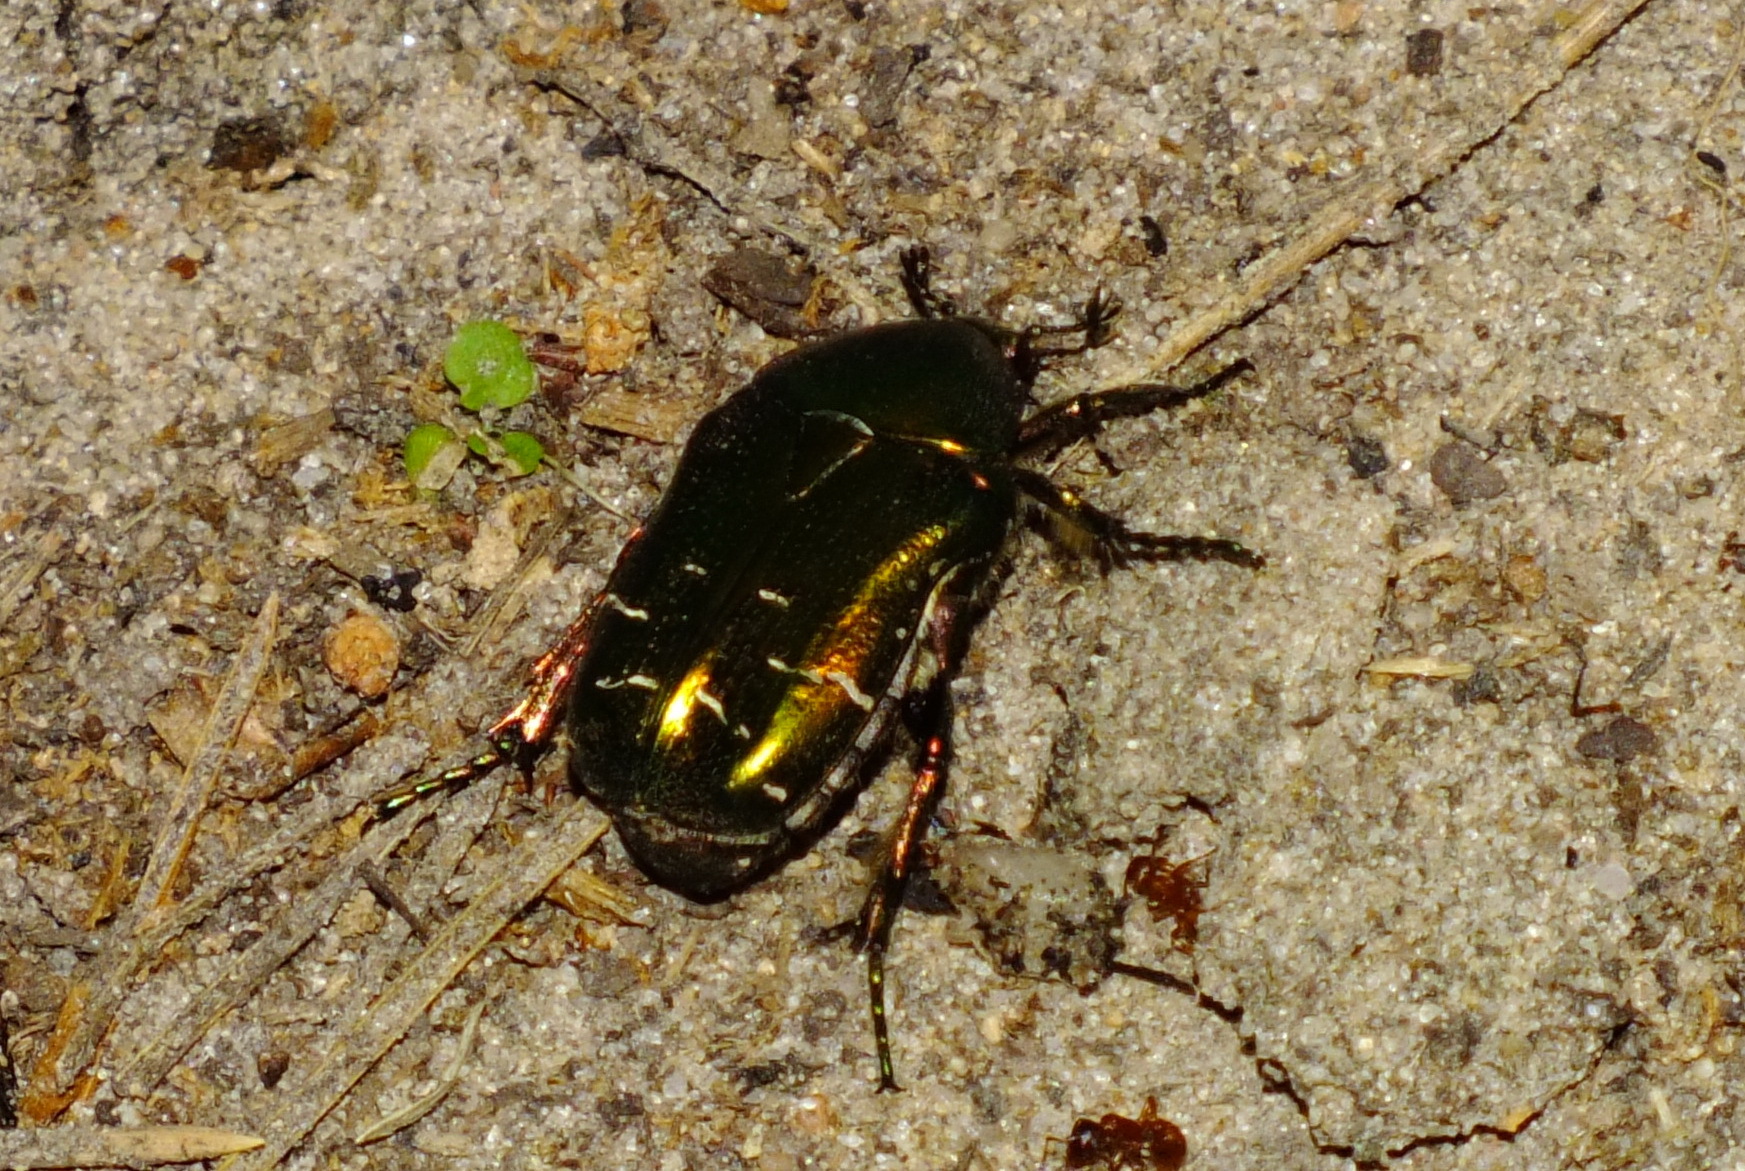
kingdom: Animalia
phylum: Arthropoda
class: Insecta
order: Coleoptera
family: Scarabaeidae
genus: Cetonia
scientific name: Cetonia aurata
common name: Rose chafer
